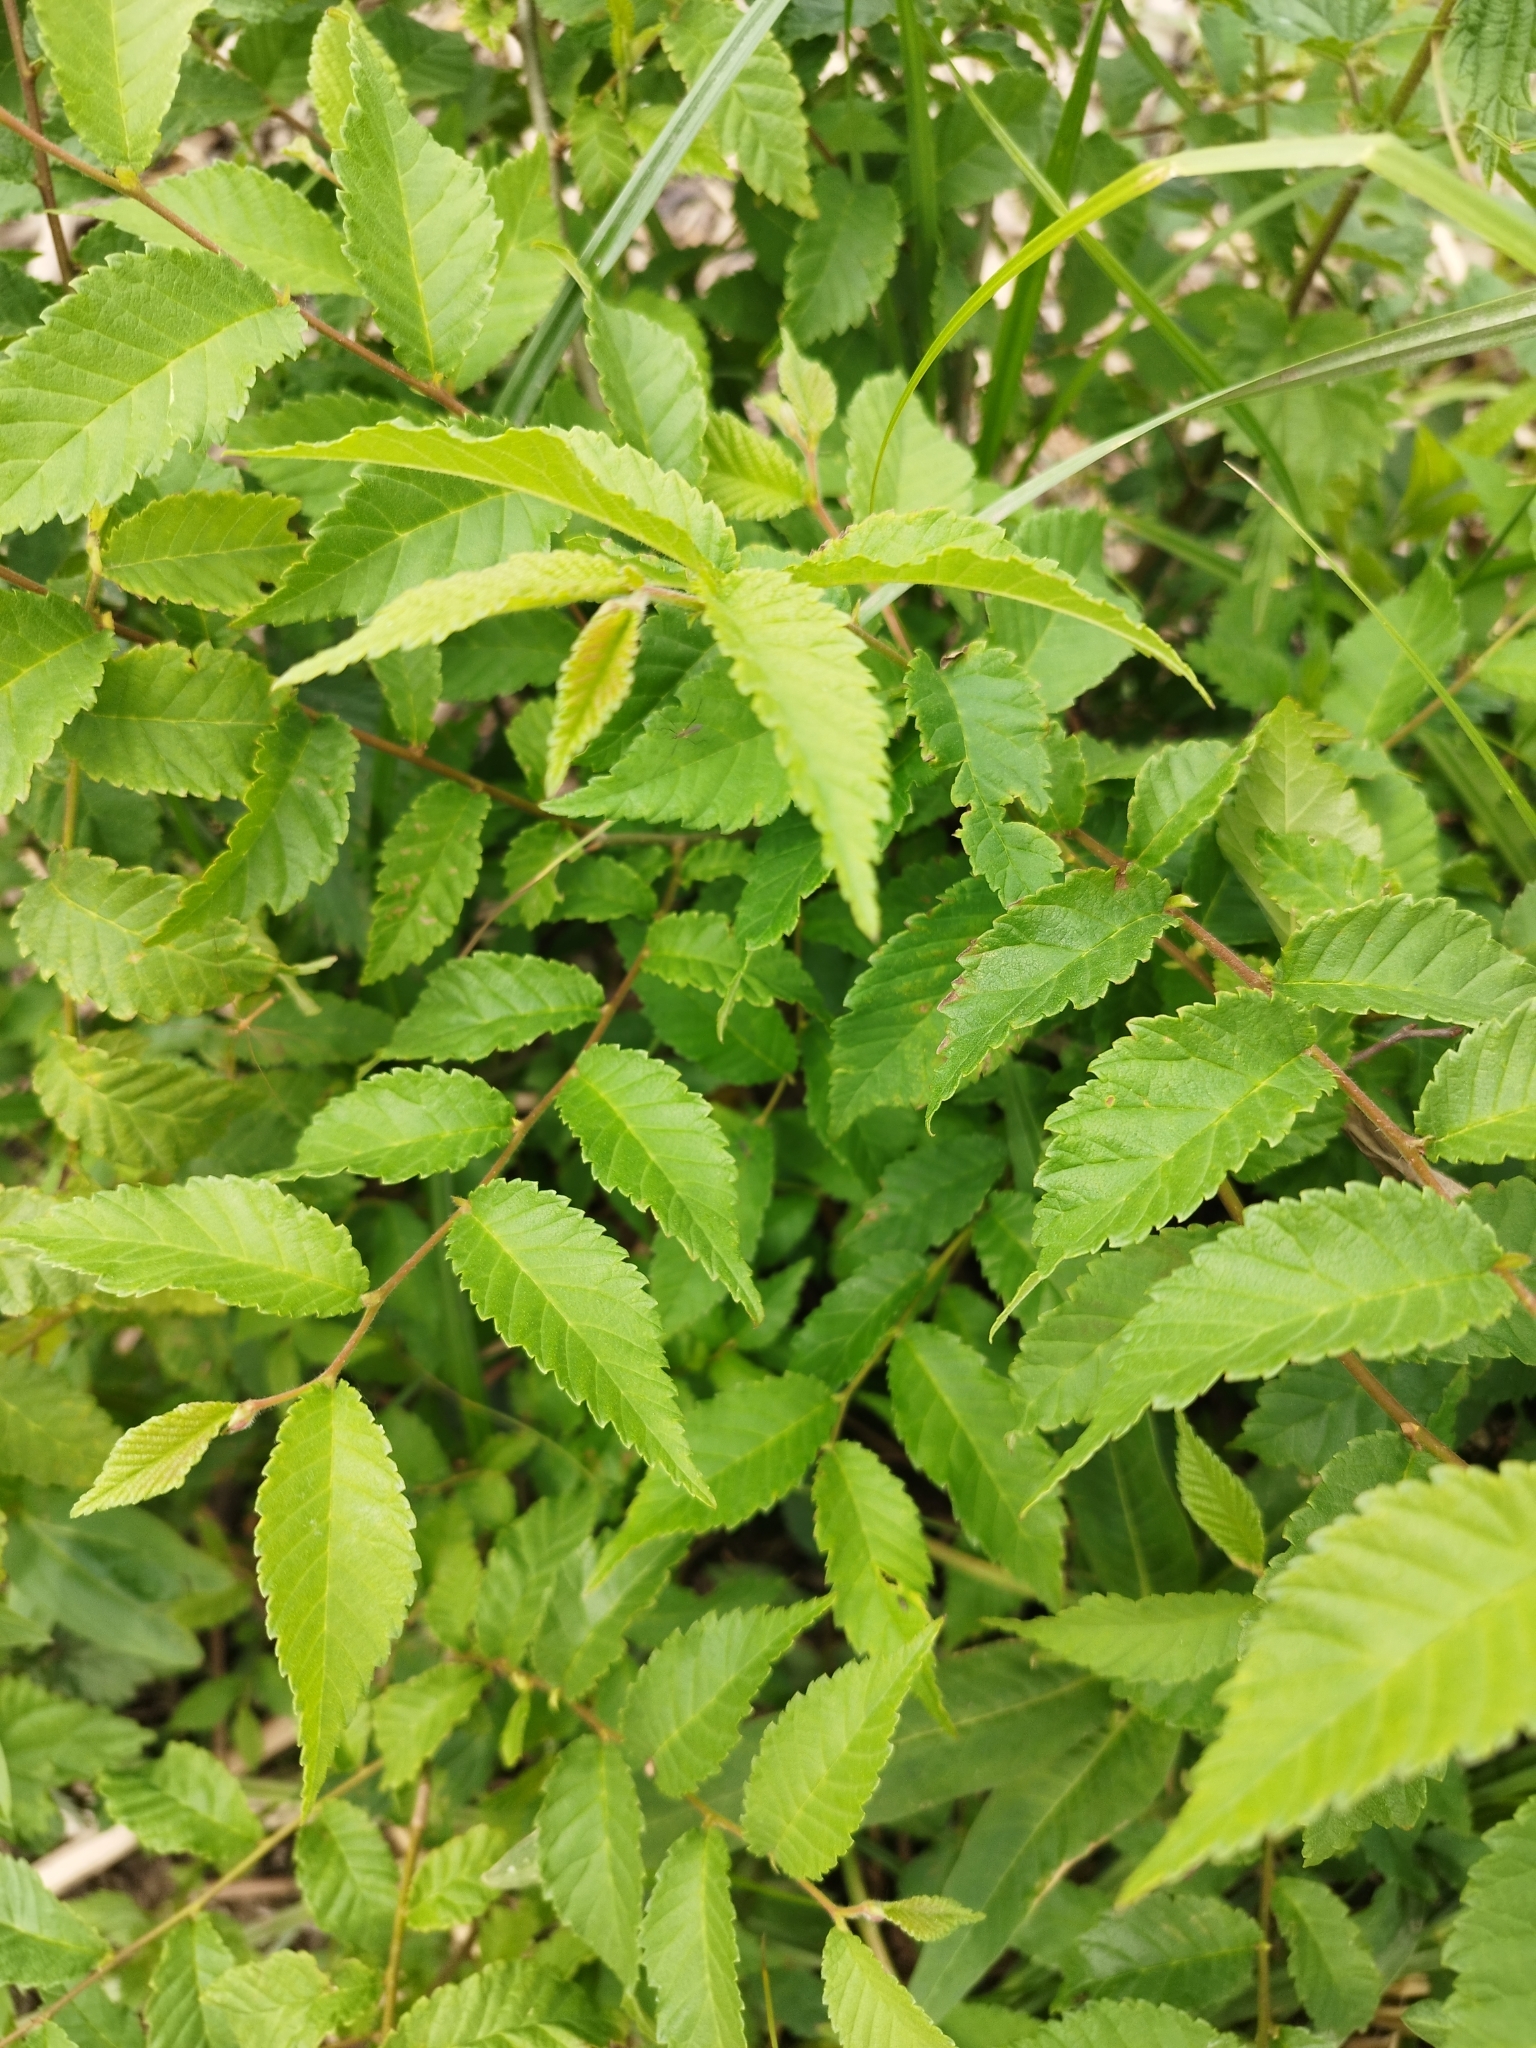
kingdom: Plantae
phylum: Tracheophyta
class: Magnoliopsida
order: Rosales
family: Ulmaceae
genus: Ulmus
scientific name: Ulmus pumila
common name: Siberian elm
